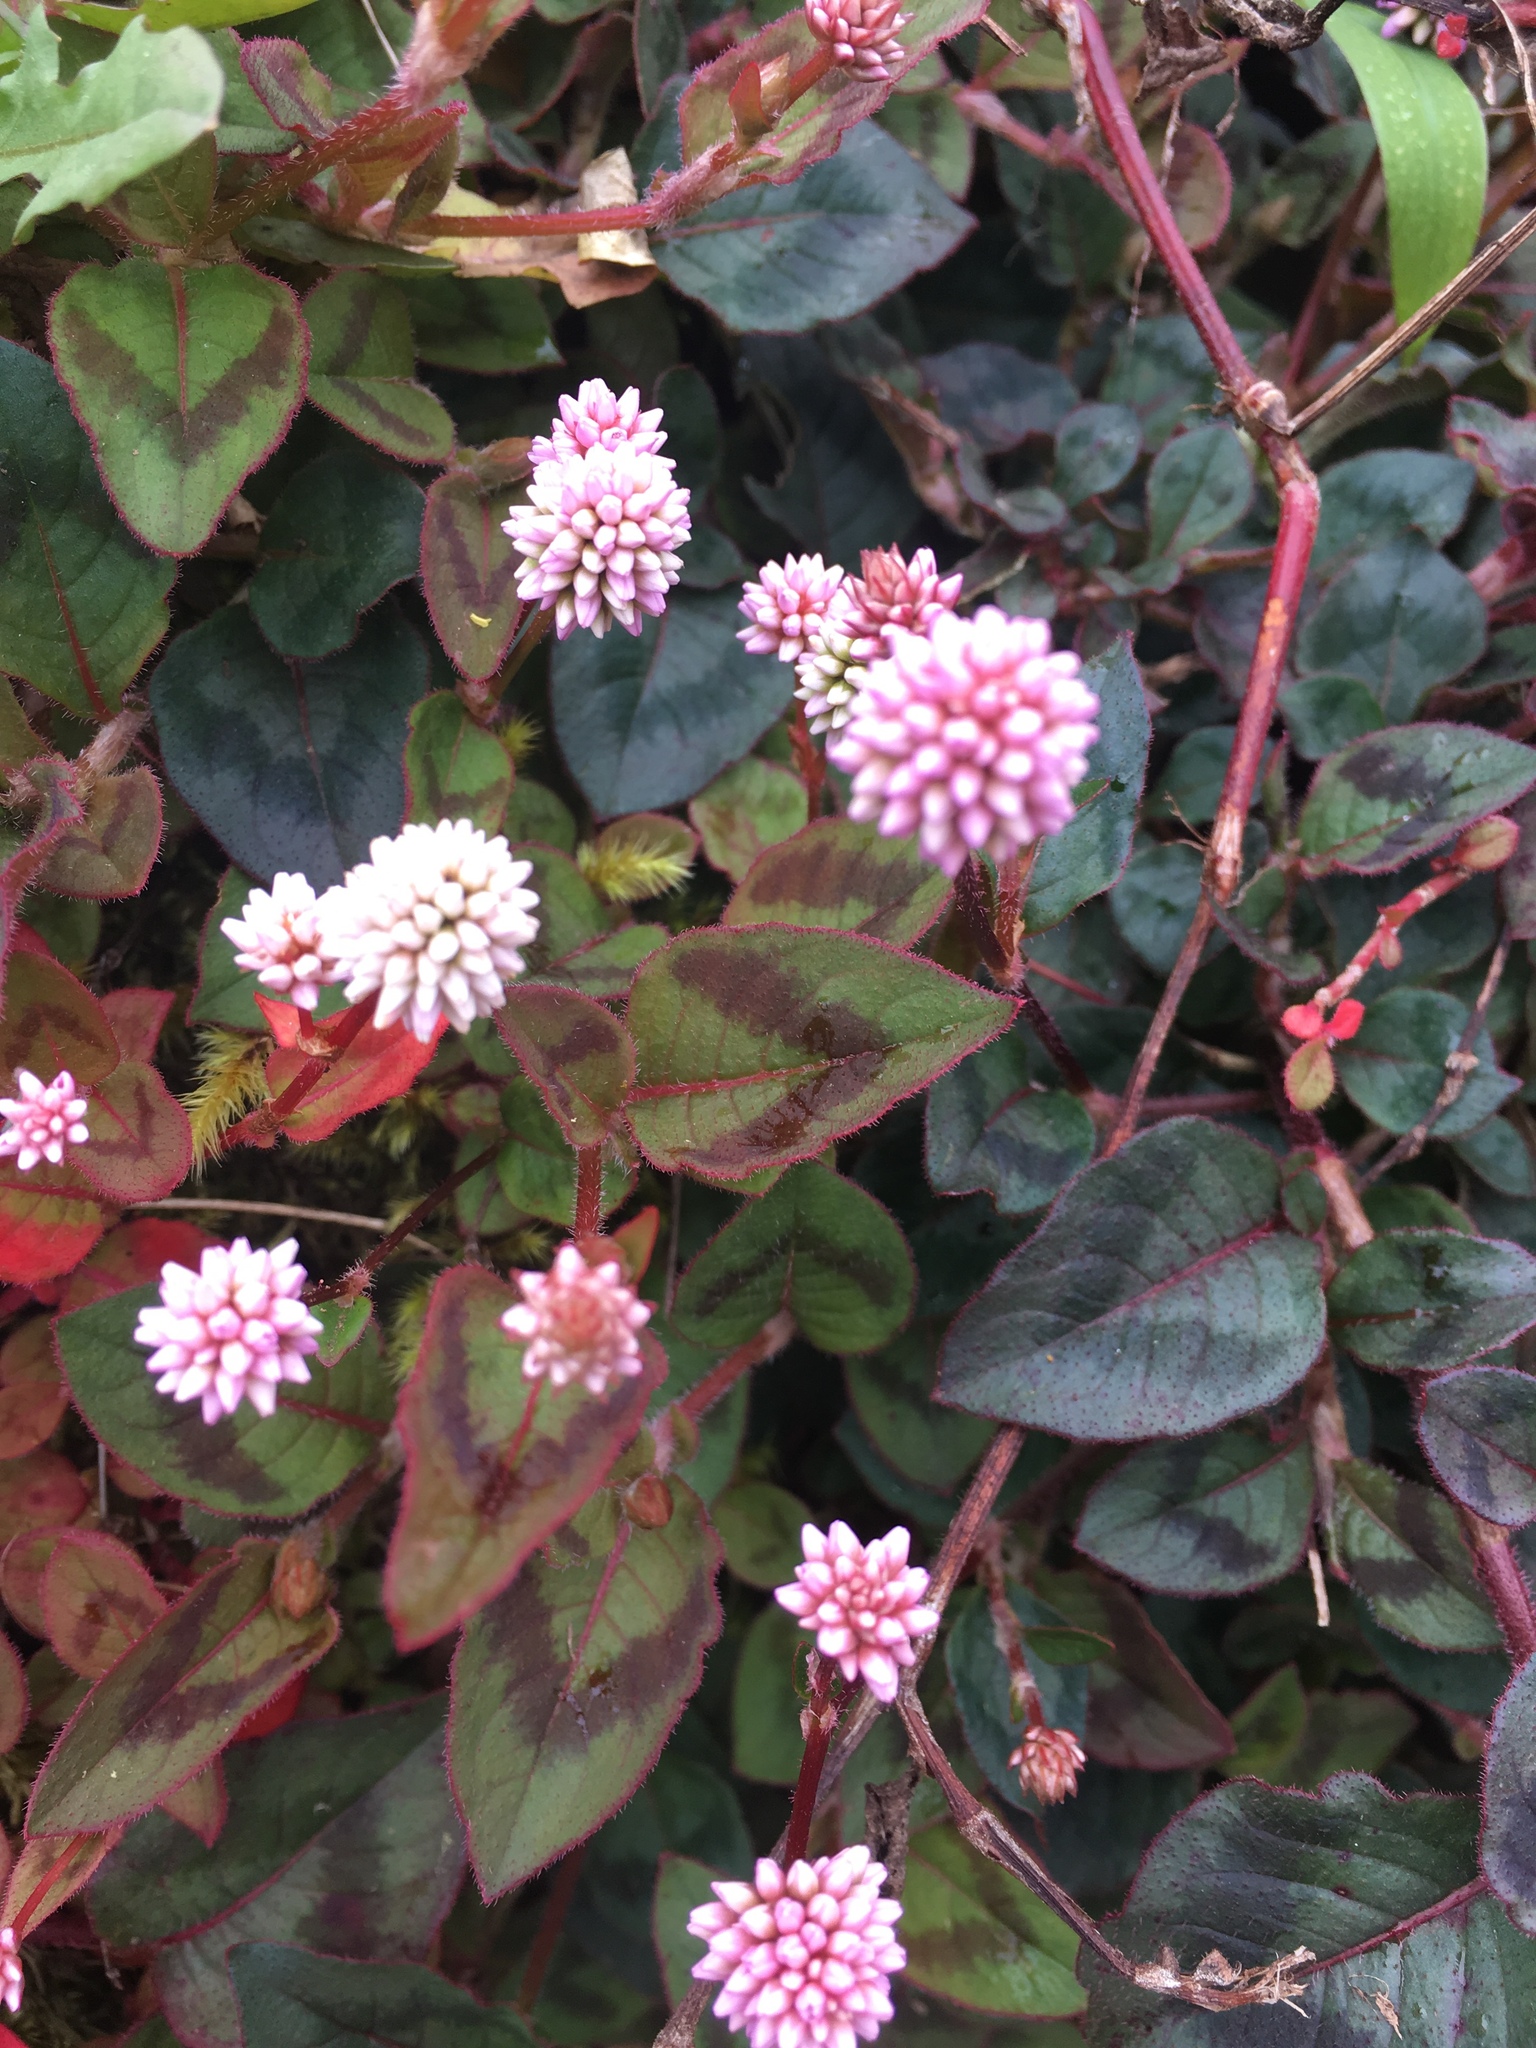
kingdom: Plantae
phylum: Tracheophyta
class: Magnoliopsida
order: Caryophyllales
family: Polygonaceae
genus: Persicaria
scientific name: Persicaria capitata
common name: Pinkhead smartweed
